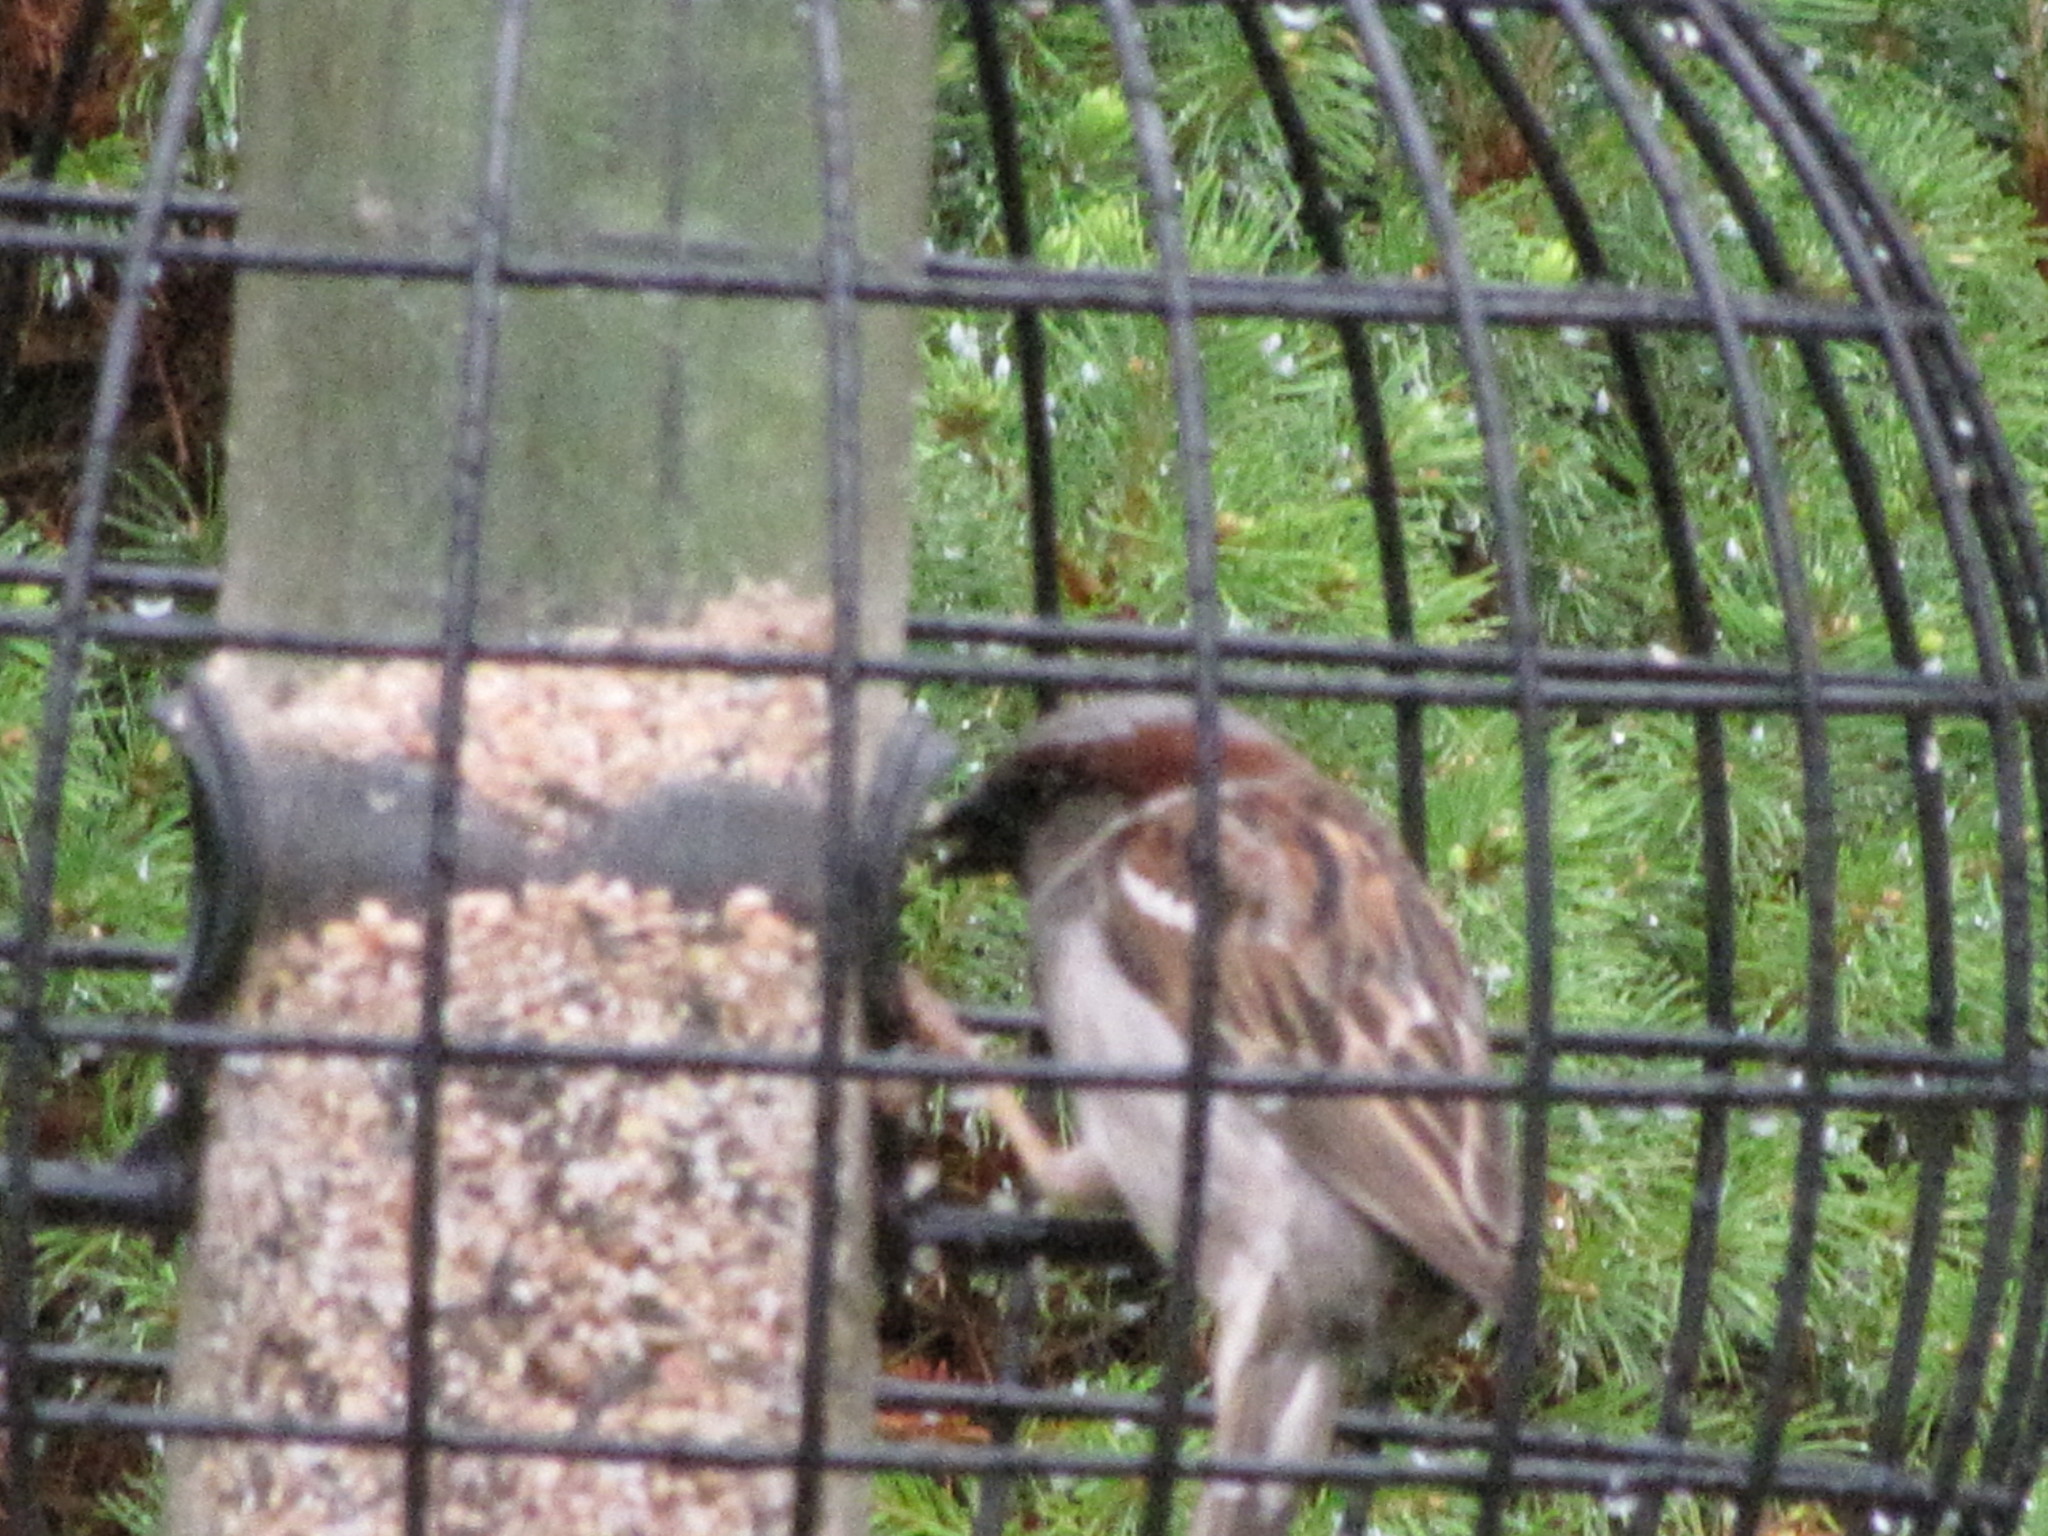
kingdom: Animalia
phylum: Chordata
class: Aves
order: Passeriformes
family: Passeridae
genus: Passer
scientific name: Passer domesticus
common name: House sparrow
